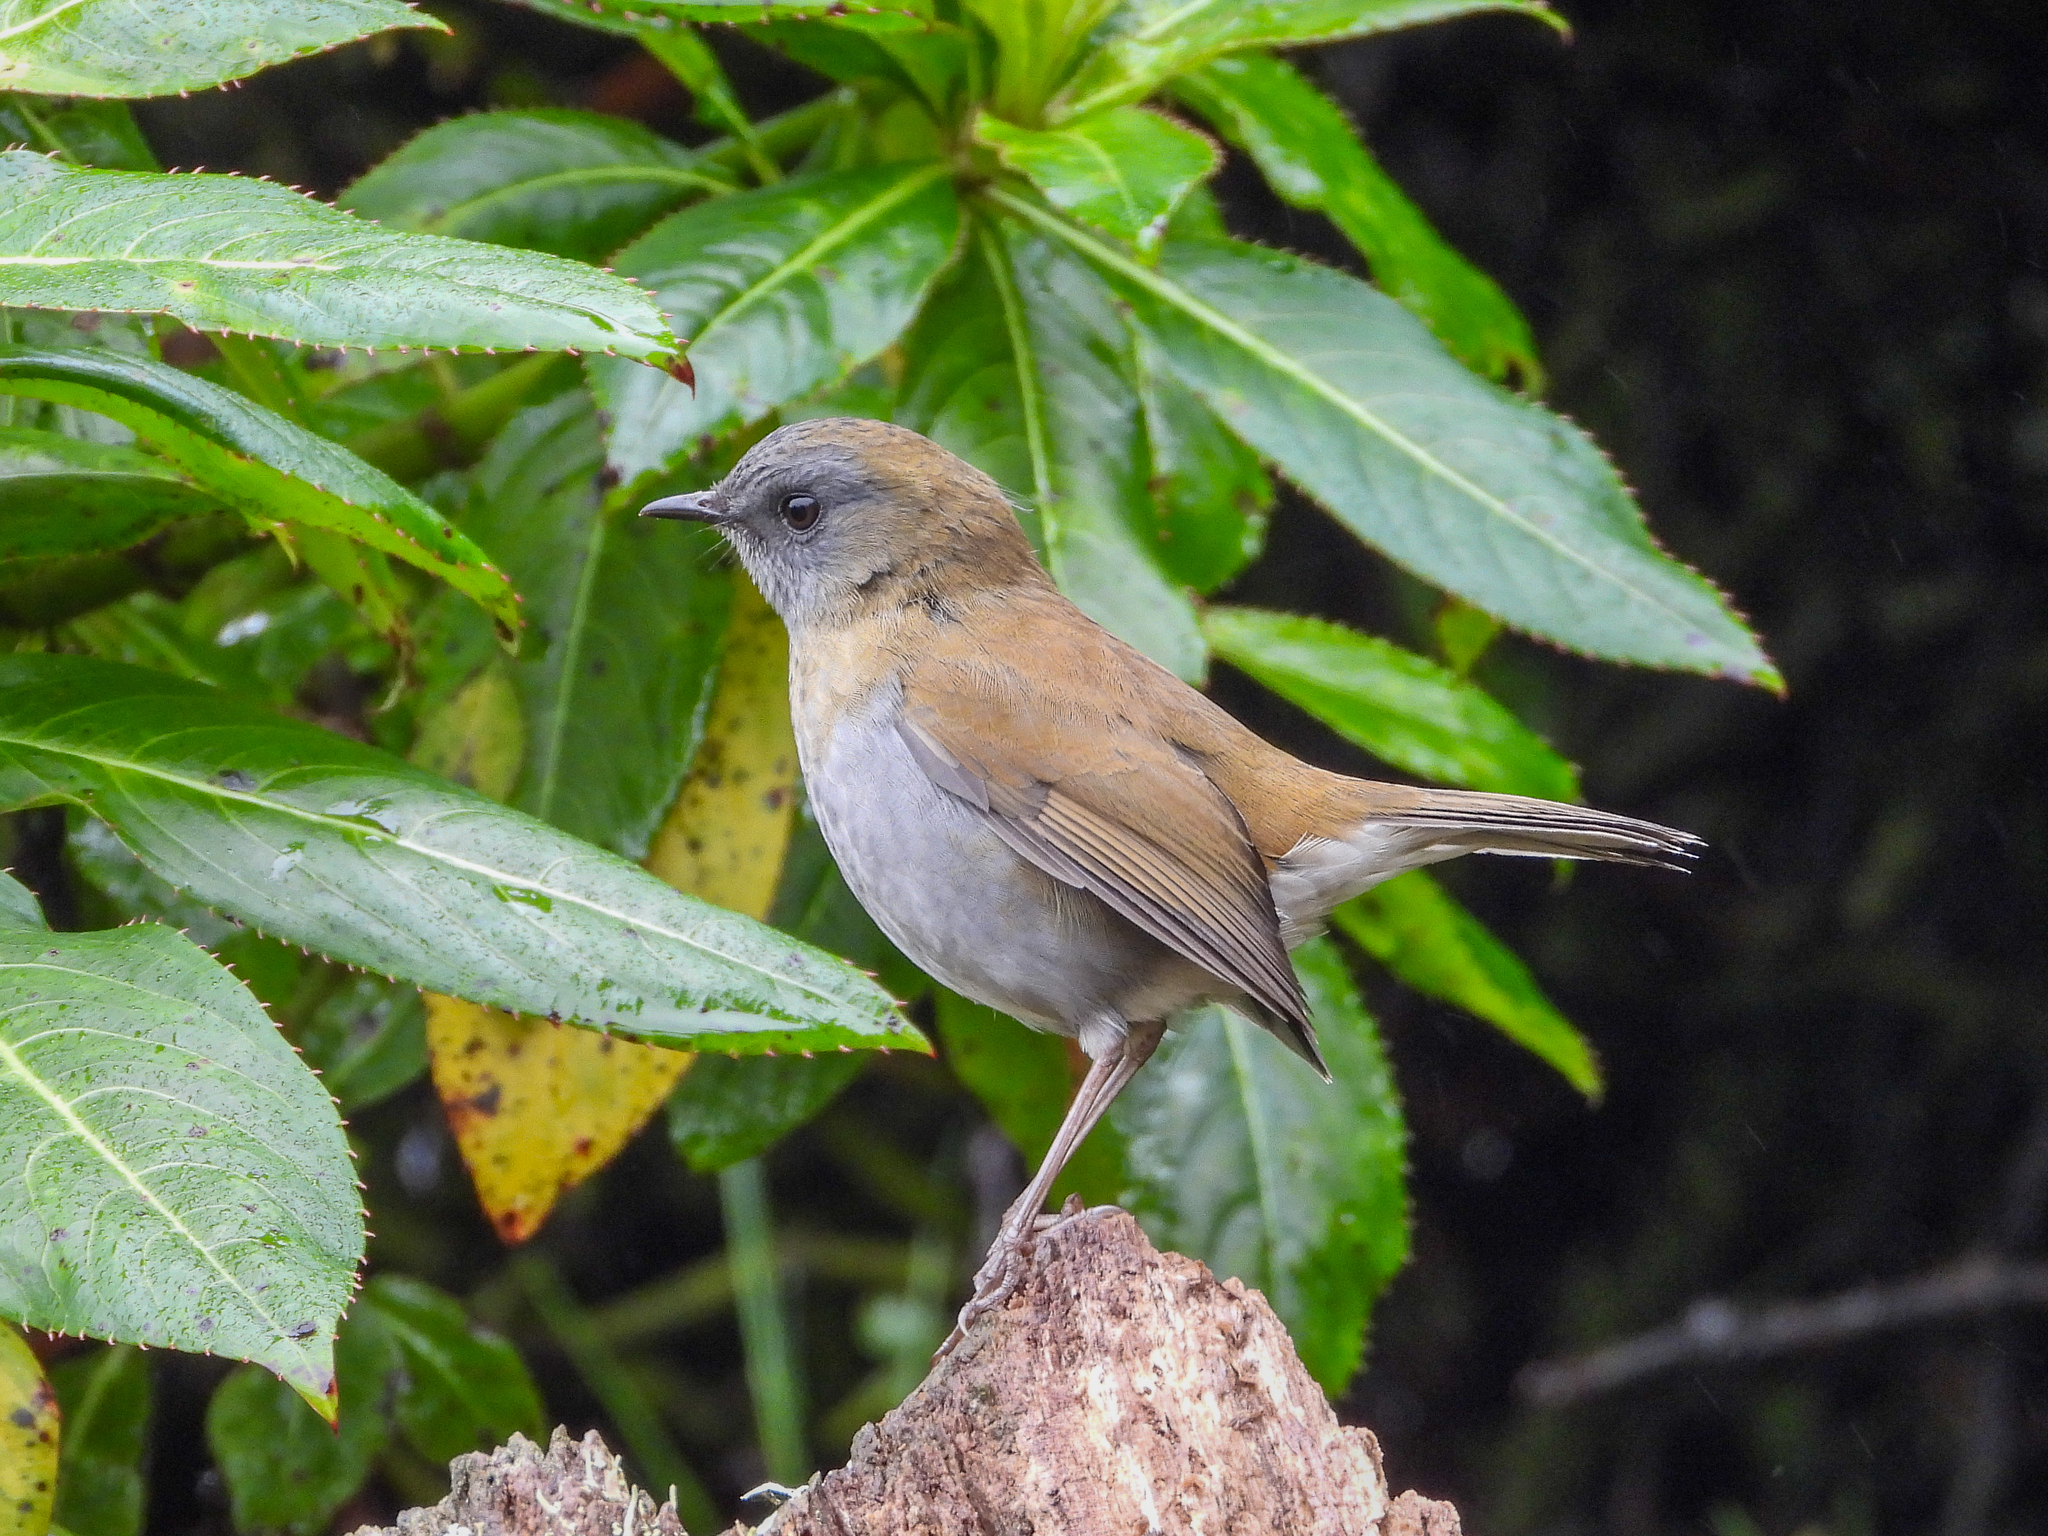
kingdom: Animalia
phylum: Chordata
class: Aves
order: Passeriformes
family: Turdidae
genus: Catharus
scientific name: Catharus gracilirostris
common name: Black-billed nightingale-thrush
